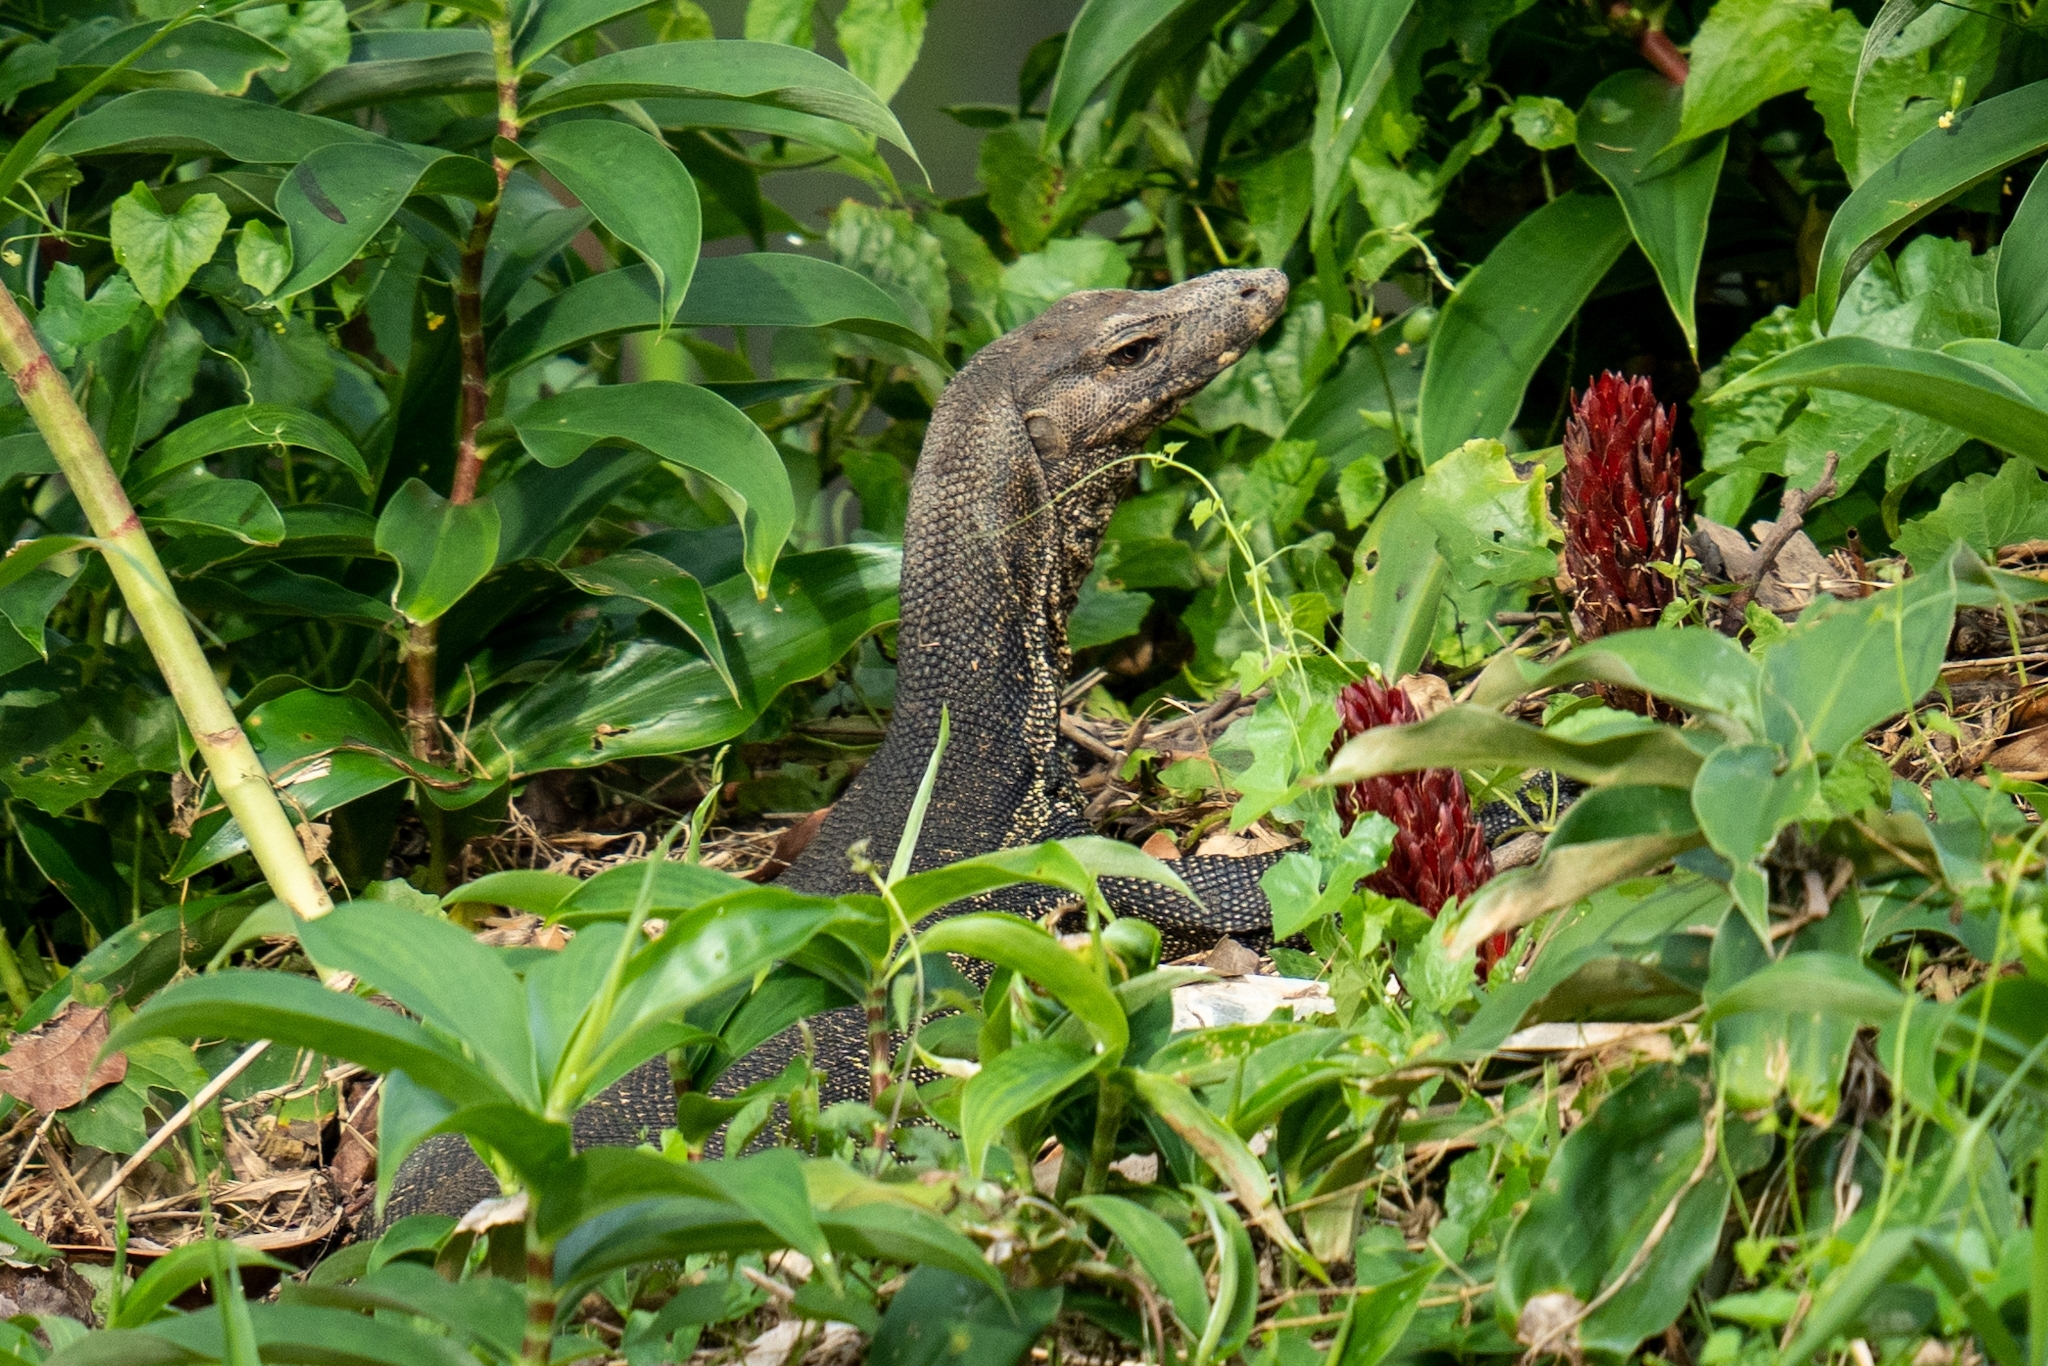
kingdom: Animalia
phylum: Chordata
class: Squamata
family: Varanidae
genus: Varanus
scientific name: Varanus salvator
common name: Common water monitor
